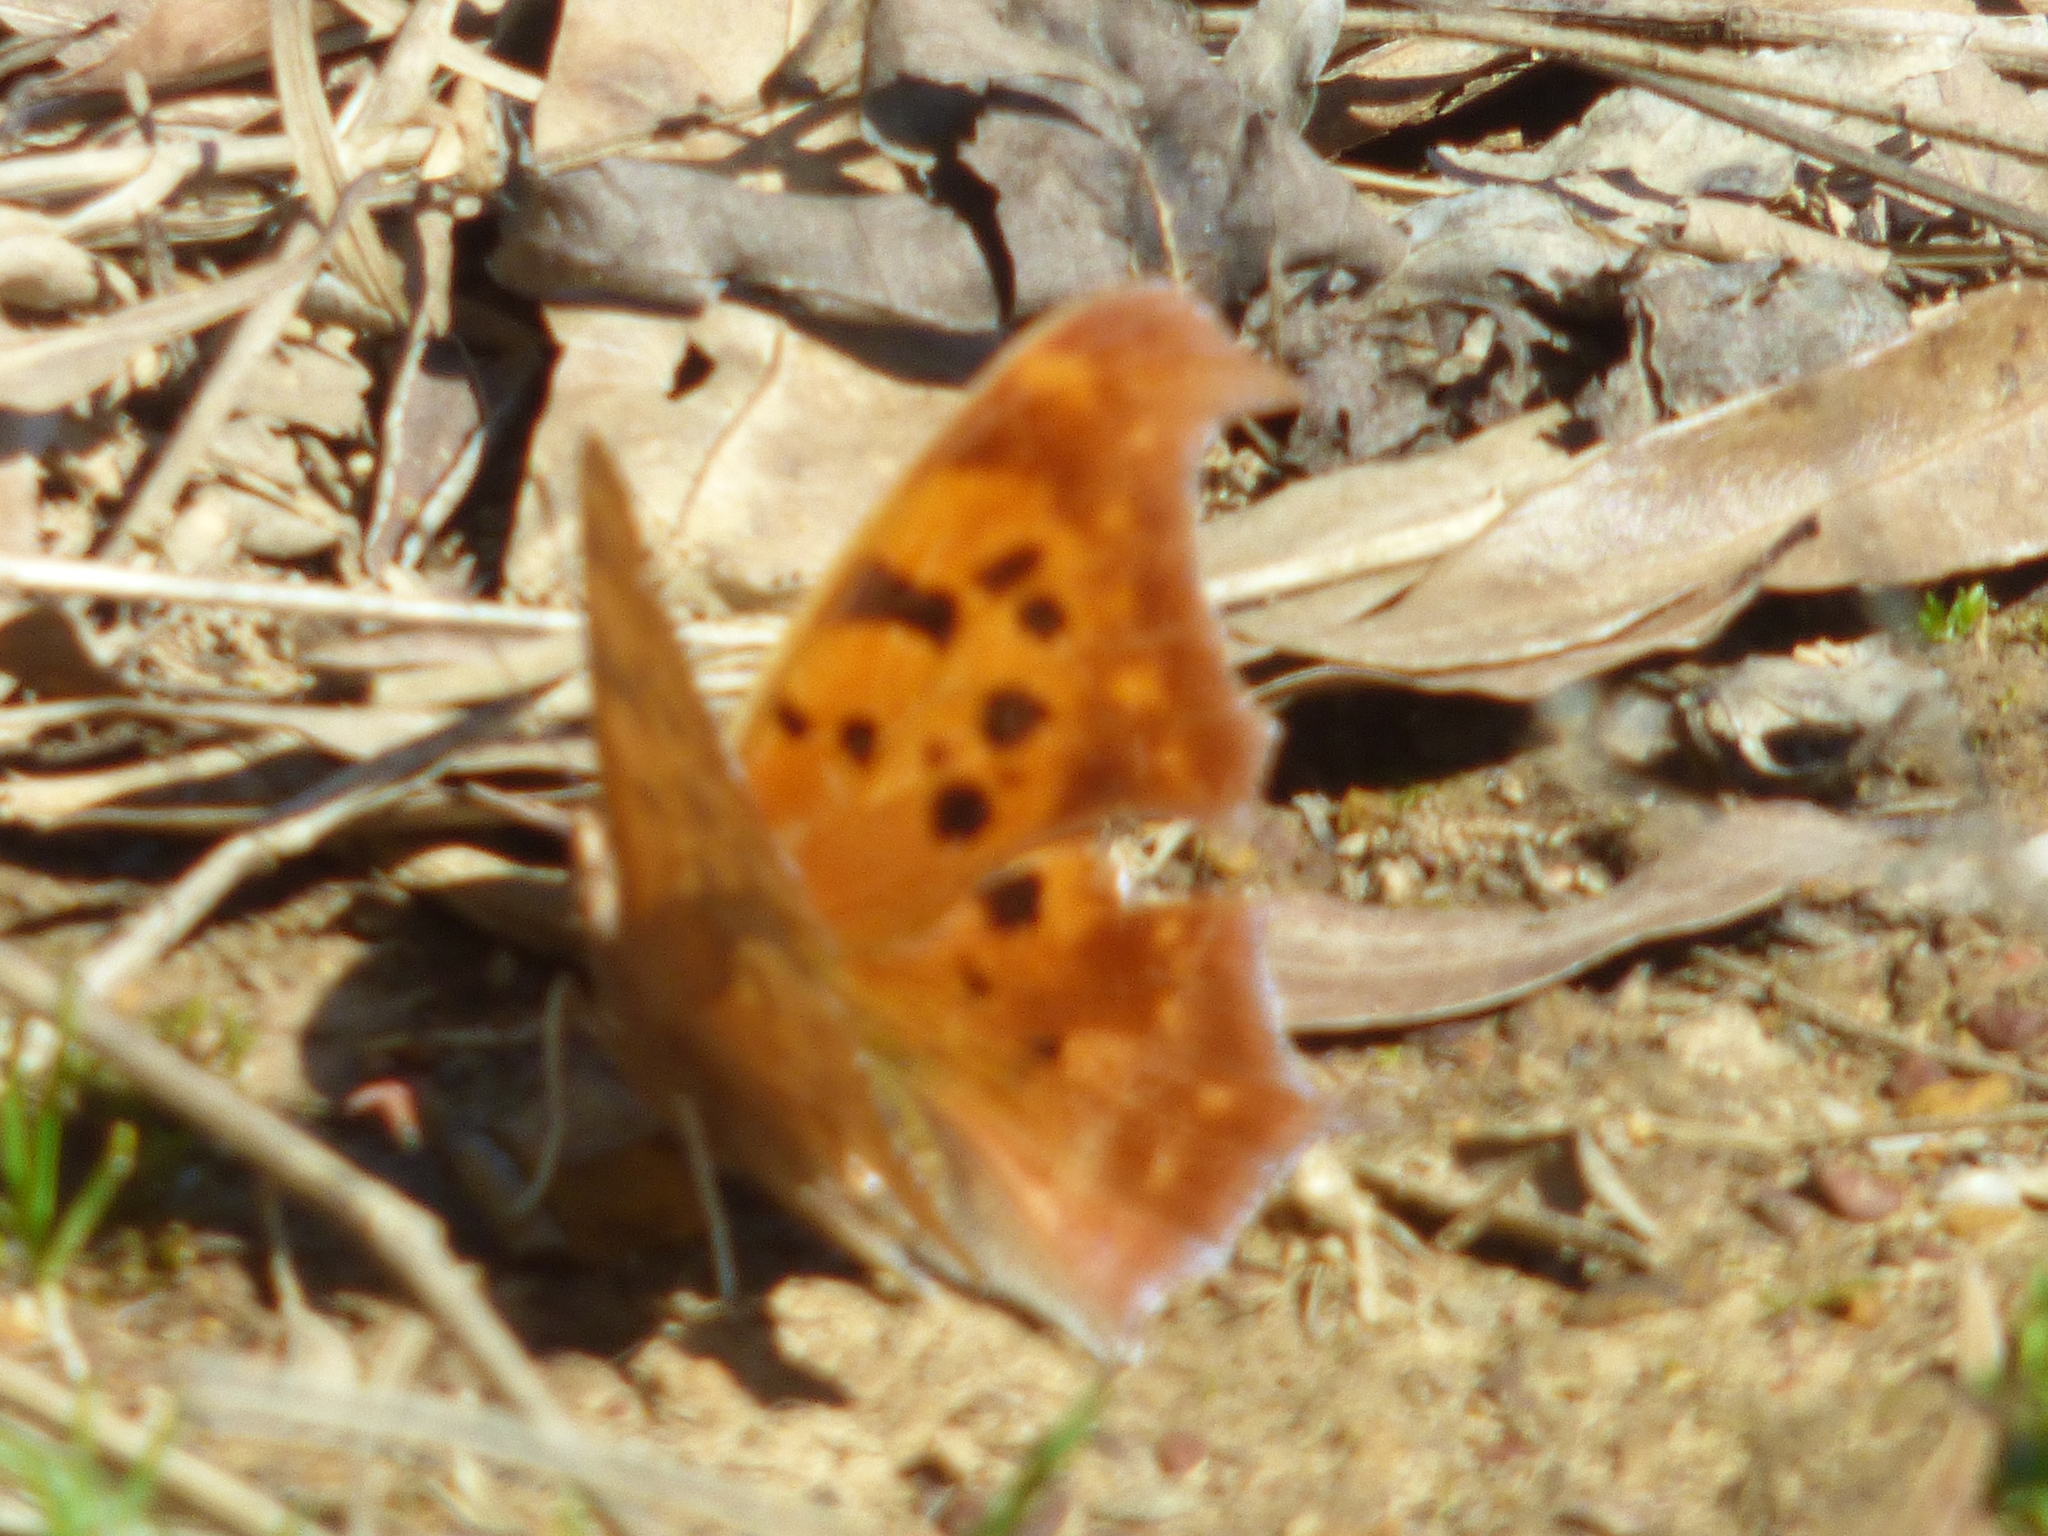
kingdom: Animalia
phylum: Arthropoda
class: Insecta
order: Lepidoptera
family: Nymphalidae
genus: Polygonia
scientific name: Polygonia interrogationis
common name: Question mark
